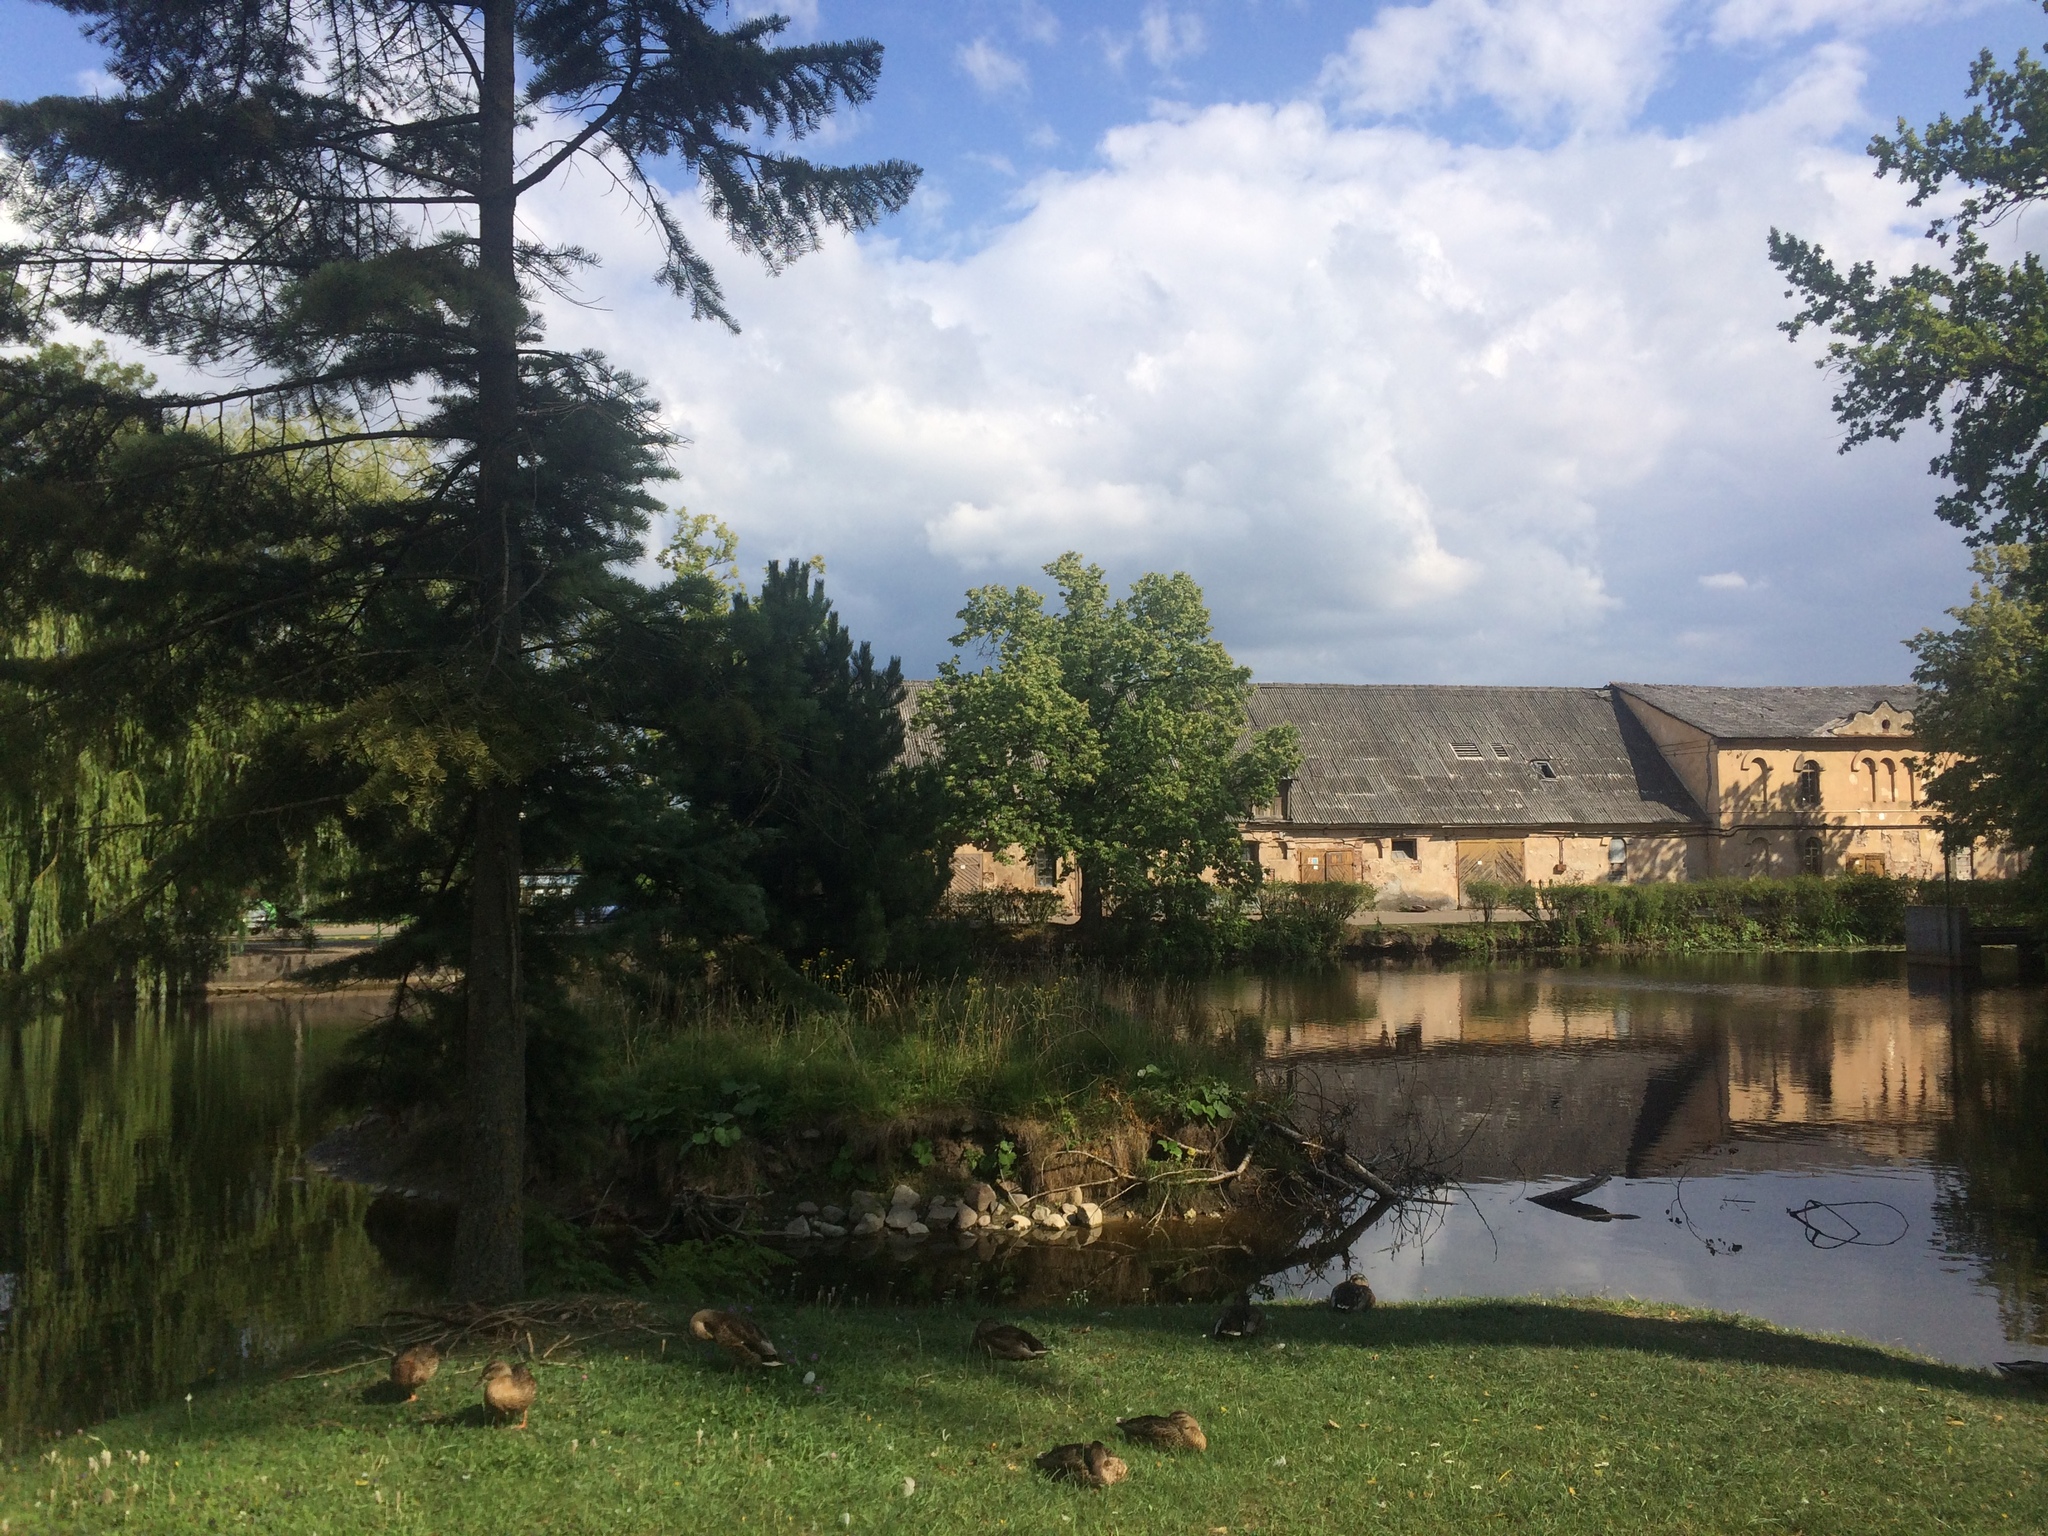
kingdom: Animalia
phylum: Chordata
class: Aves
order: Anseriformes
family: Anatidae
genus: Anas
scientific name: Anas platyrhynchos
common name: Mallard
